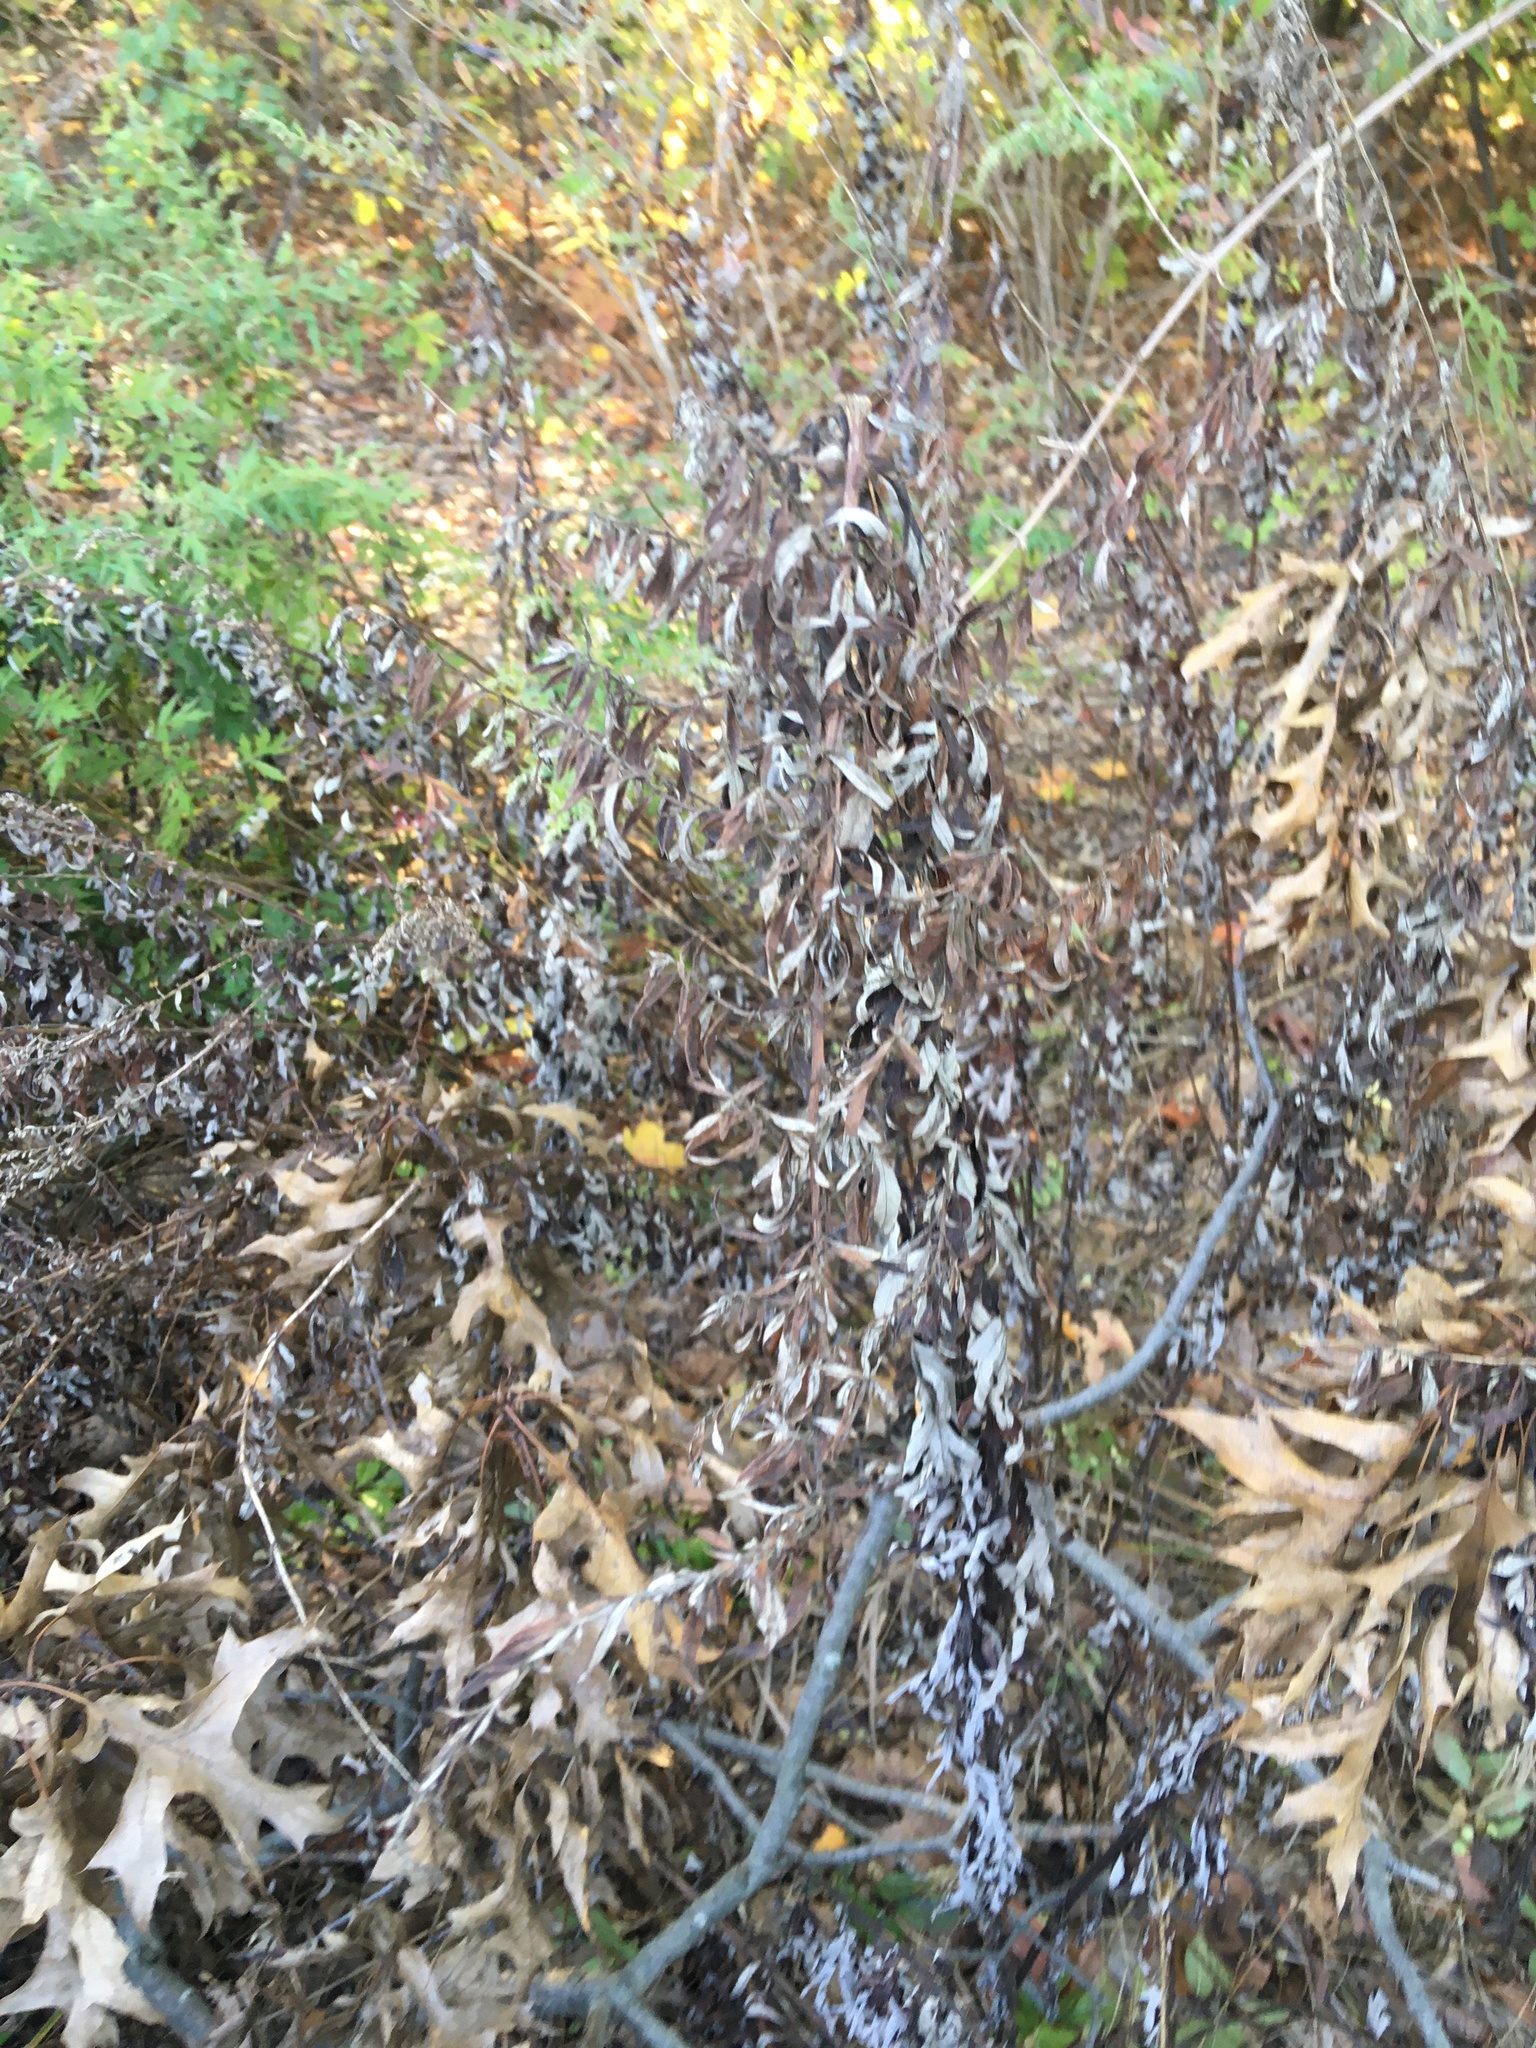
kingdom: Plantae
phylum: Tracheophyta
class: Magnoliopsida
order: Asterales
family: Asteraceae
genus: Artemisia
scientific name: Artemisia vulgaris
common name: Mugwort
